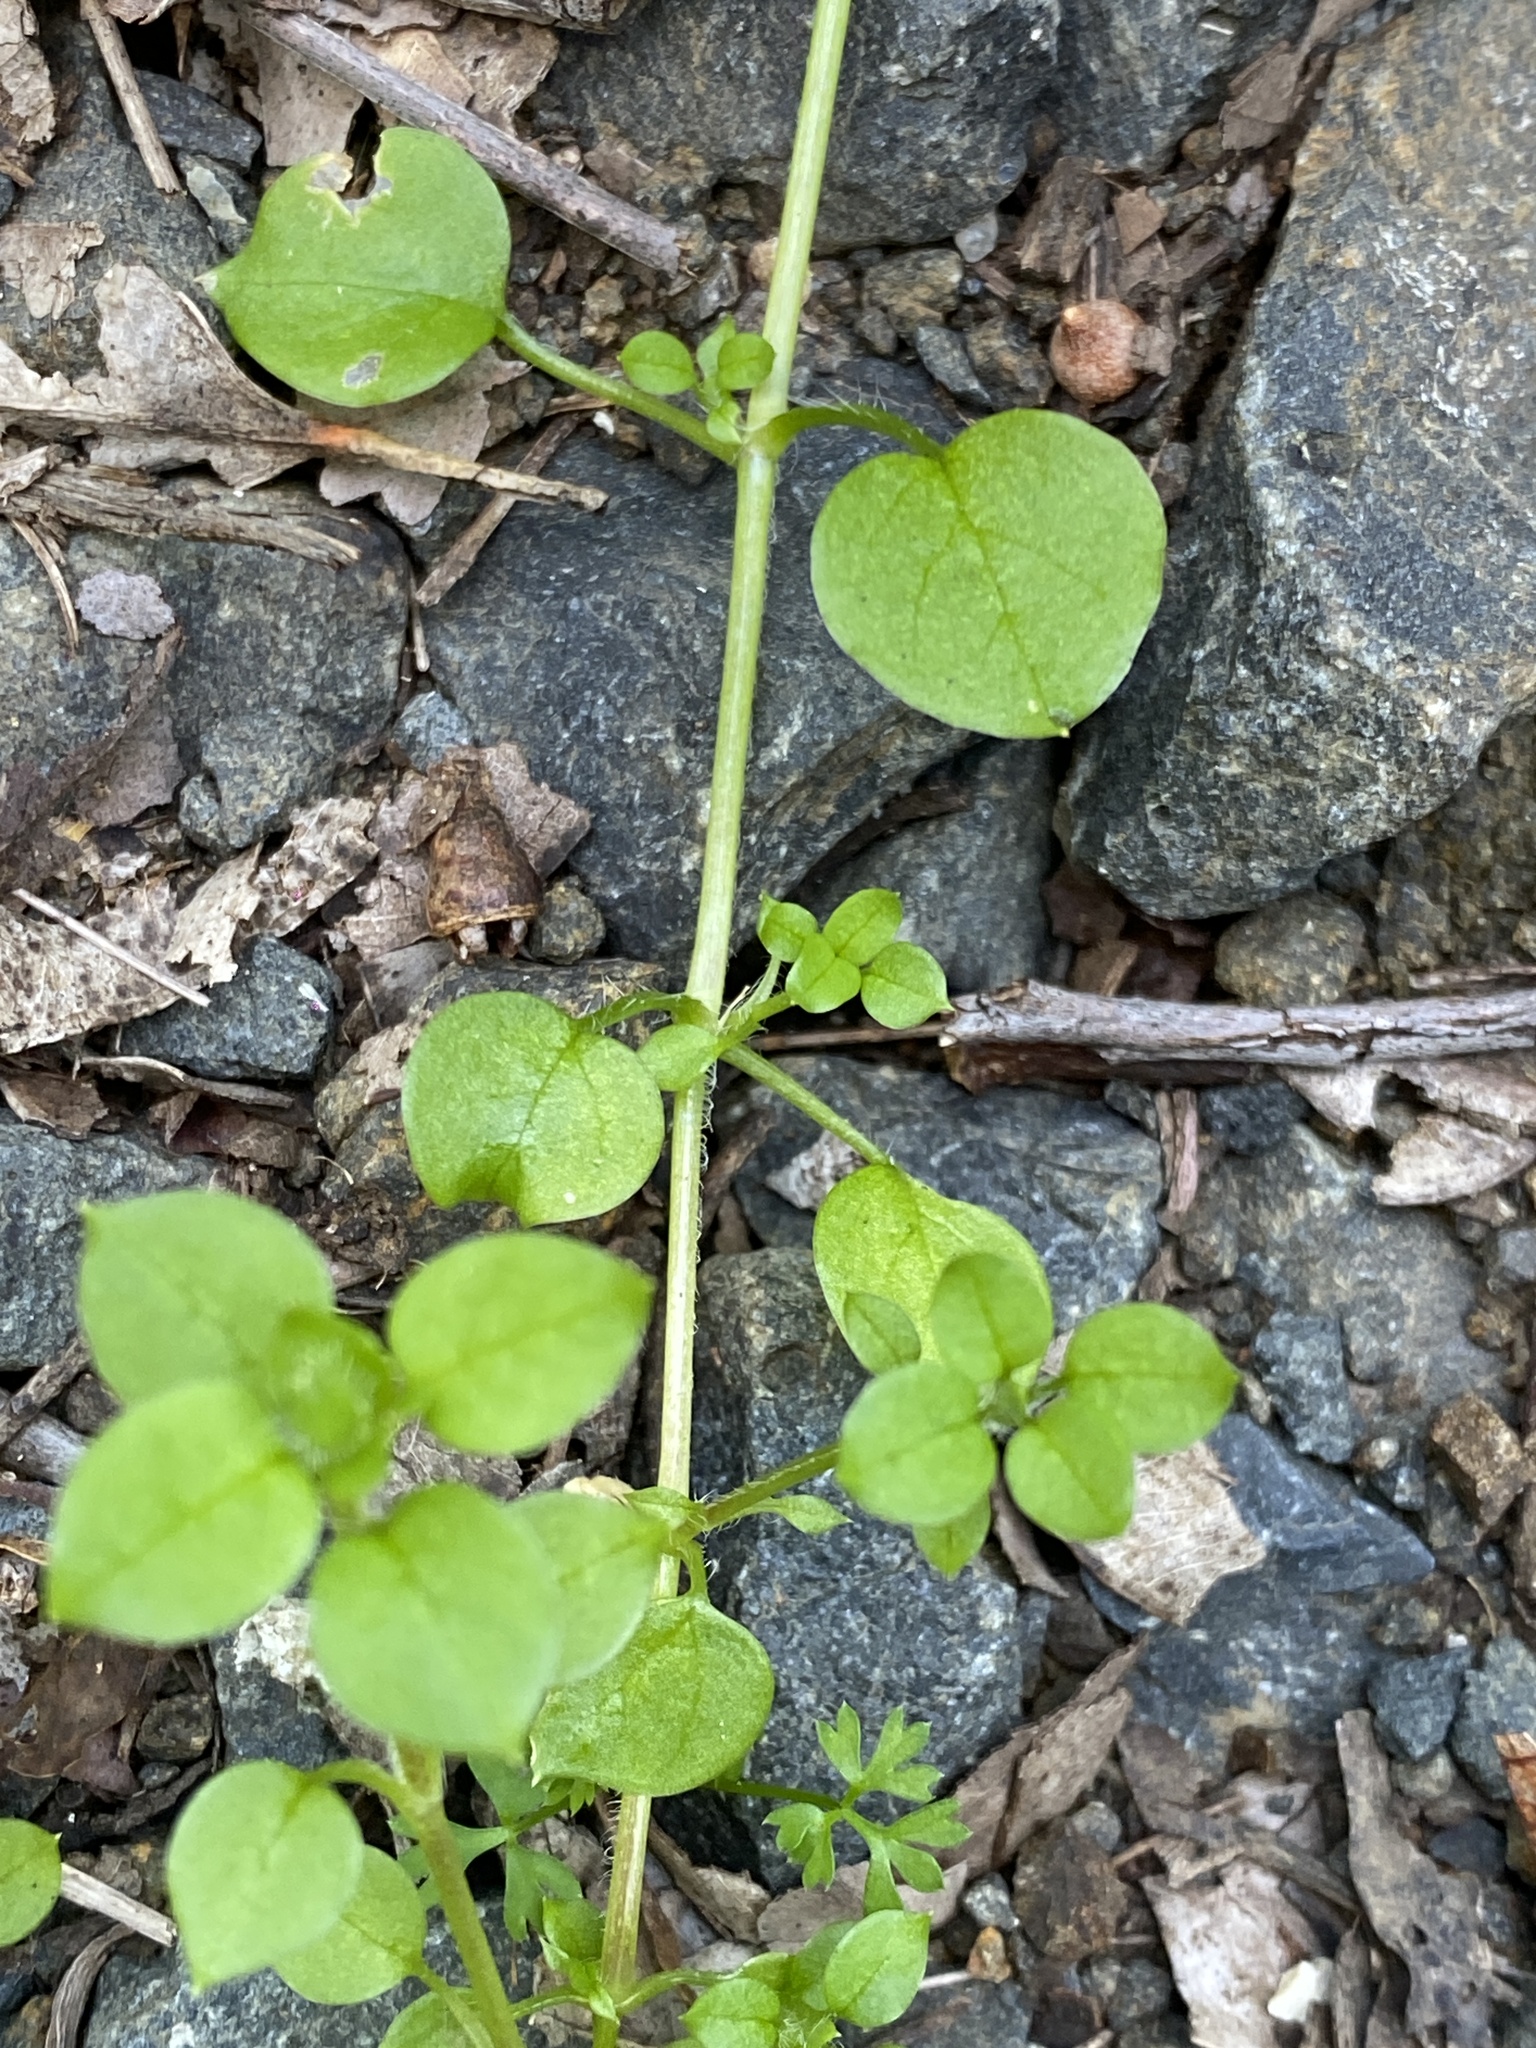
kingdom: Plantae
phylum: Tracheophyta
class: Magnoliopsida
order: Caryophyllales
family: Caryophyllaceae
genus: Stellaria
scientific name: Stellaria media
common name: Common chickweed
